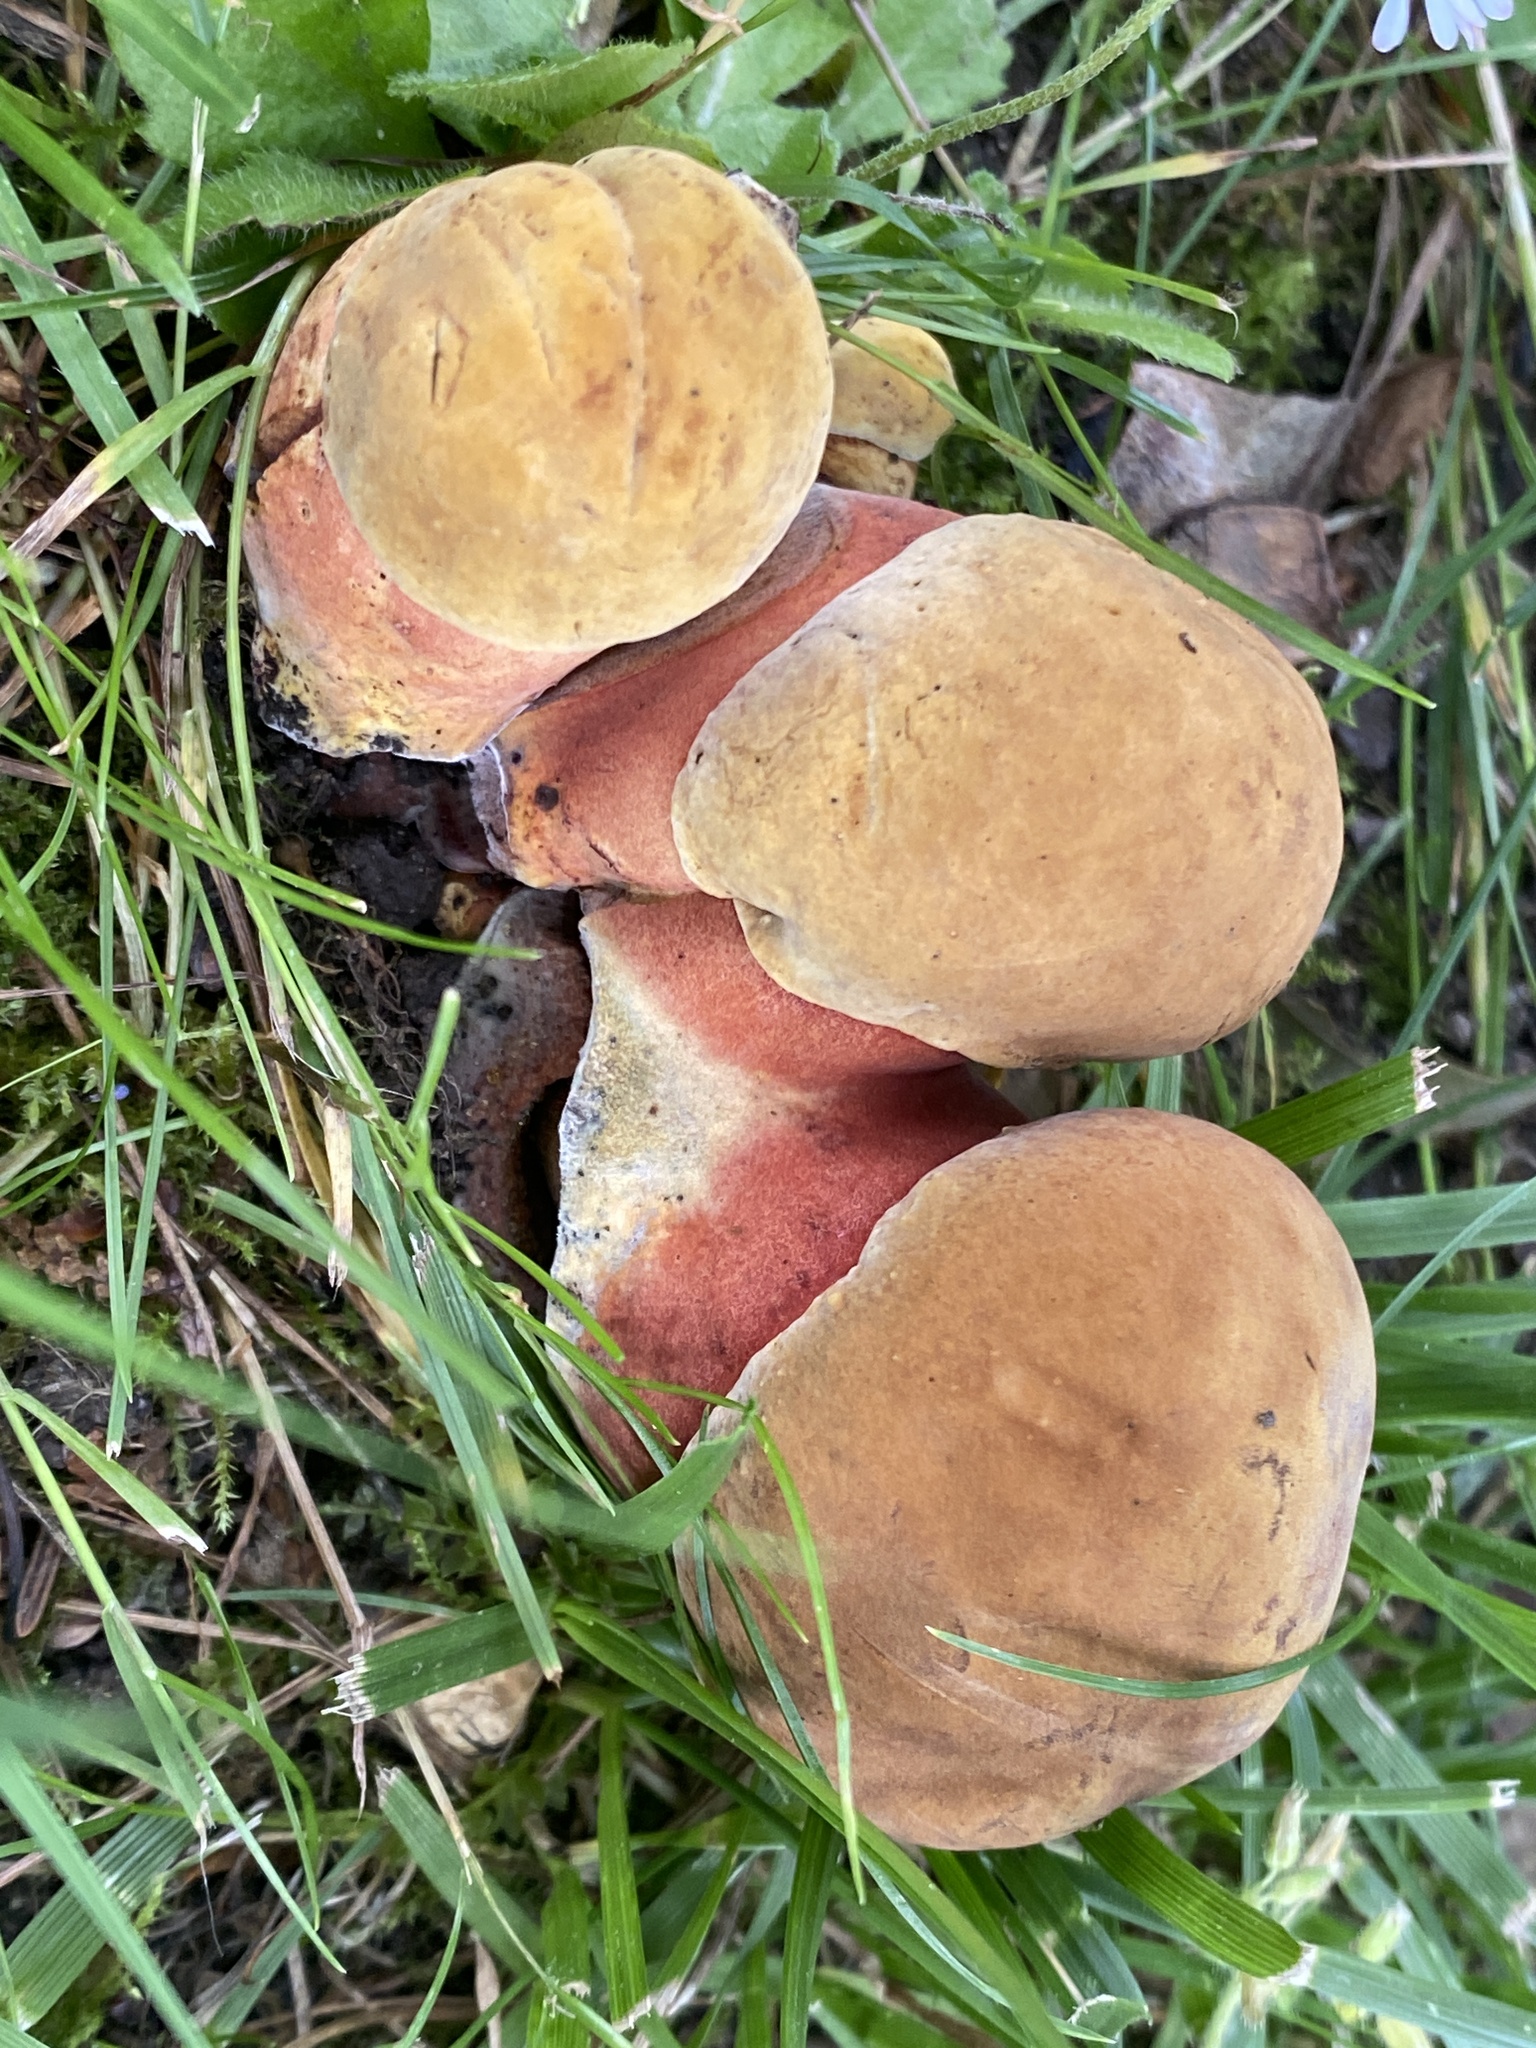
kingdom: Fungi
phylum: Basidiomycota
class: Agaricomycetes
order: Boletales
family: Boletaceae
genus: Neoboletus
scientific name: Neoboletus xanthopus
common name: False yellow bolete
